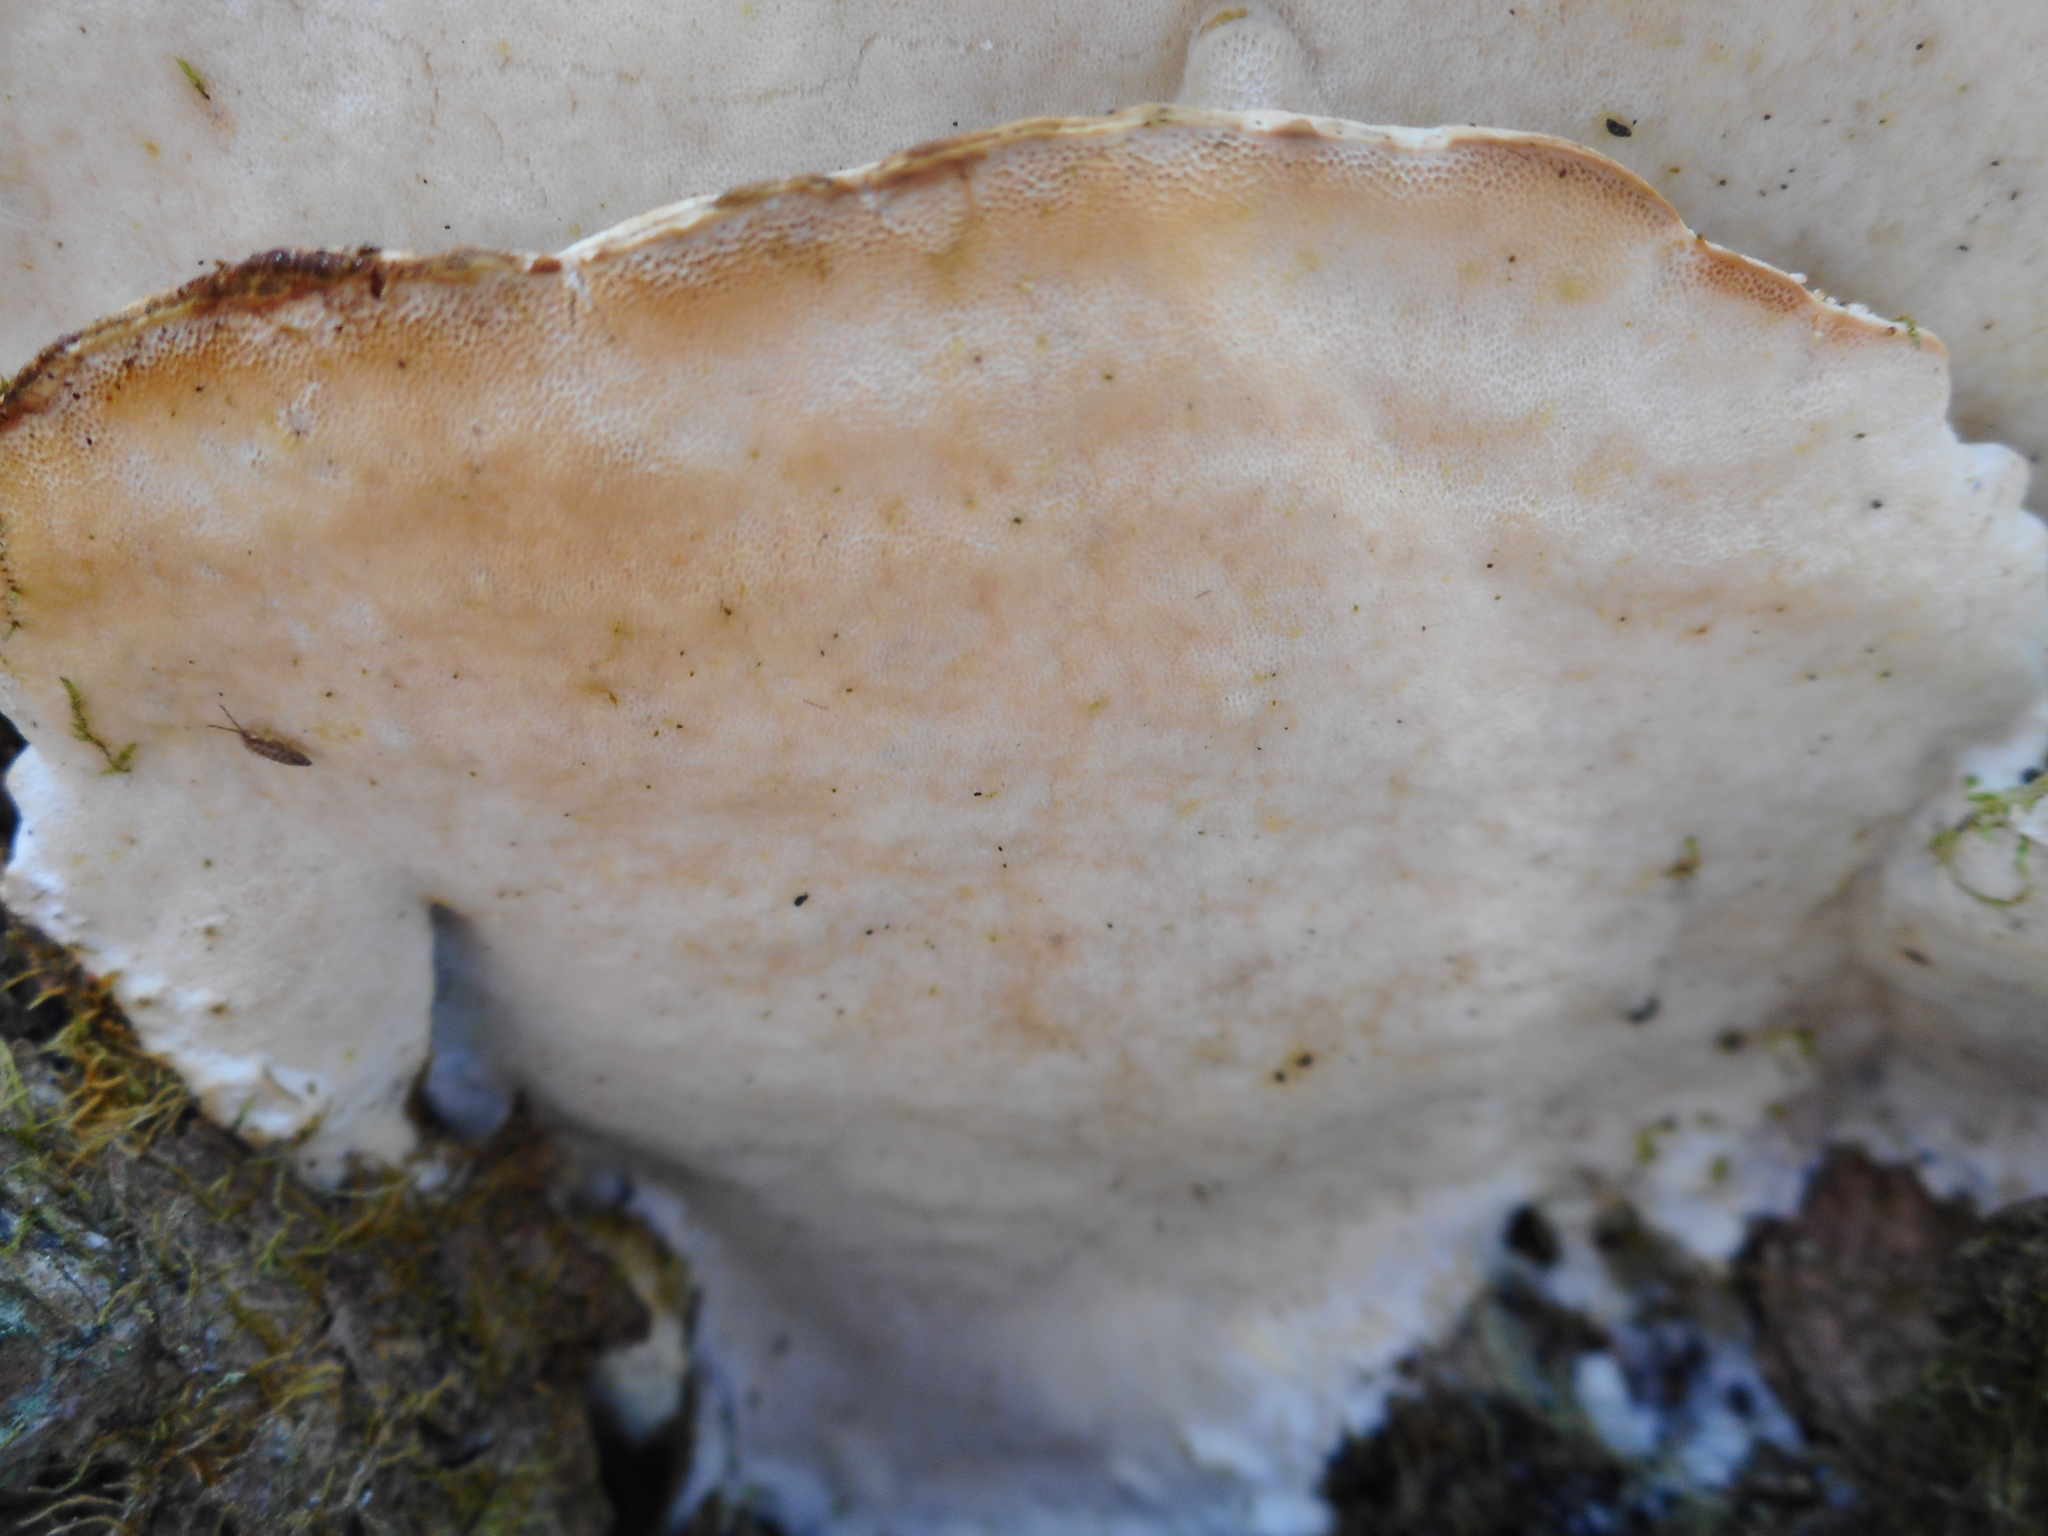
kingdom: Fungi
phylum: Basidiomycota
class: Agaricomycetes
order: Hymenochaetales
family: Oxyporaceae
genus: Oxyporus
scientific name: Oxyporus populinus
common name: Poplar bracket
